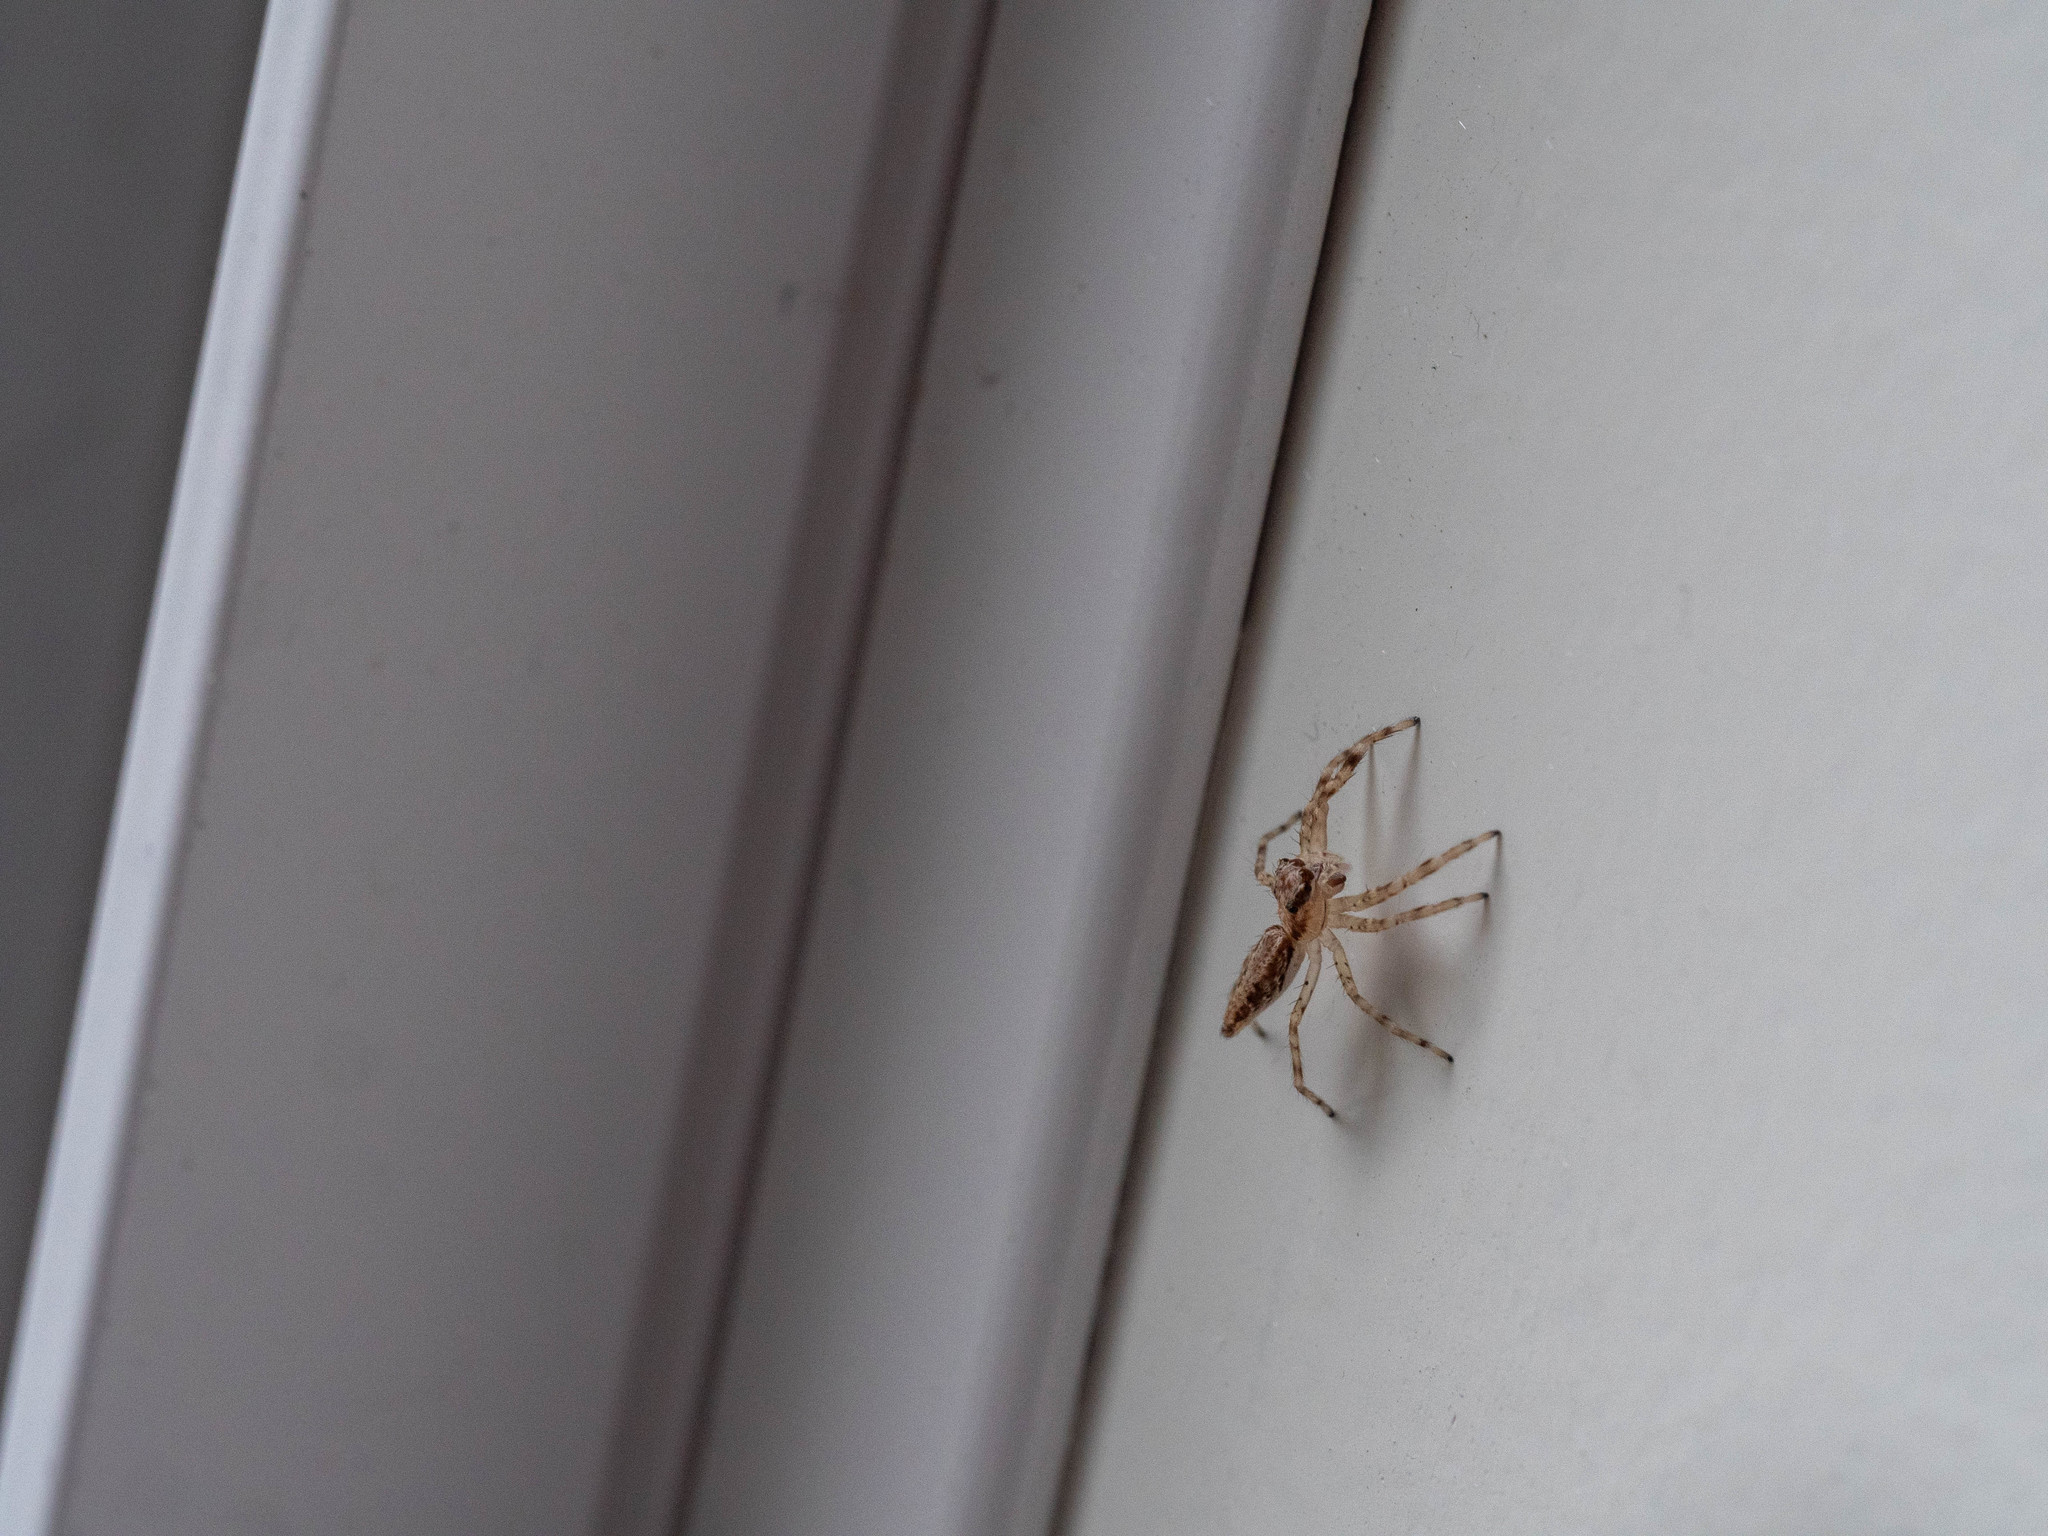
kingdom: Animalia
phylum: Arthropoda
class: Arachnida
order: Araneae
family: Salticidae
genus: Helpis
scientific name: Helpis minitabunda
